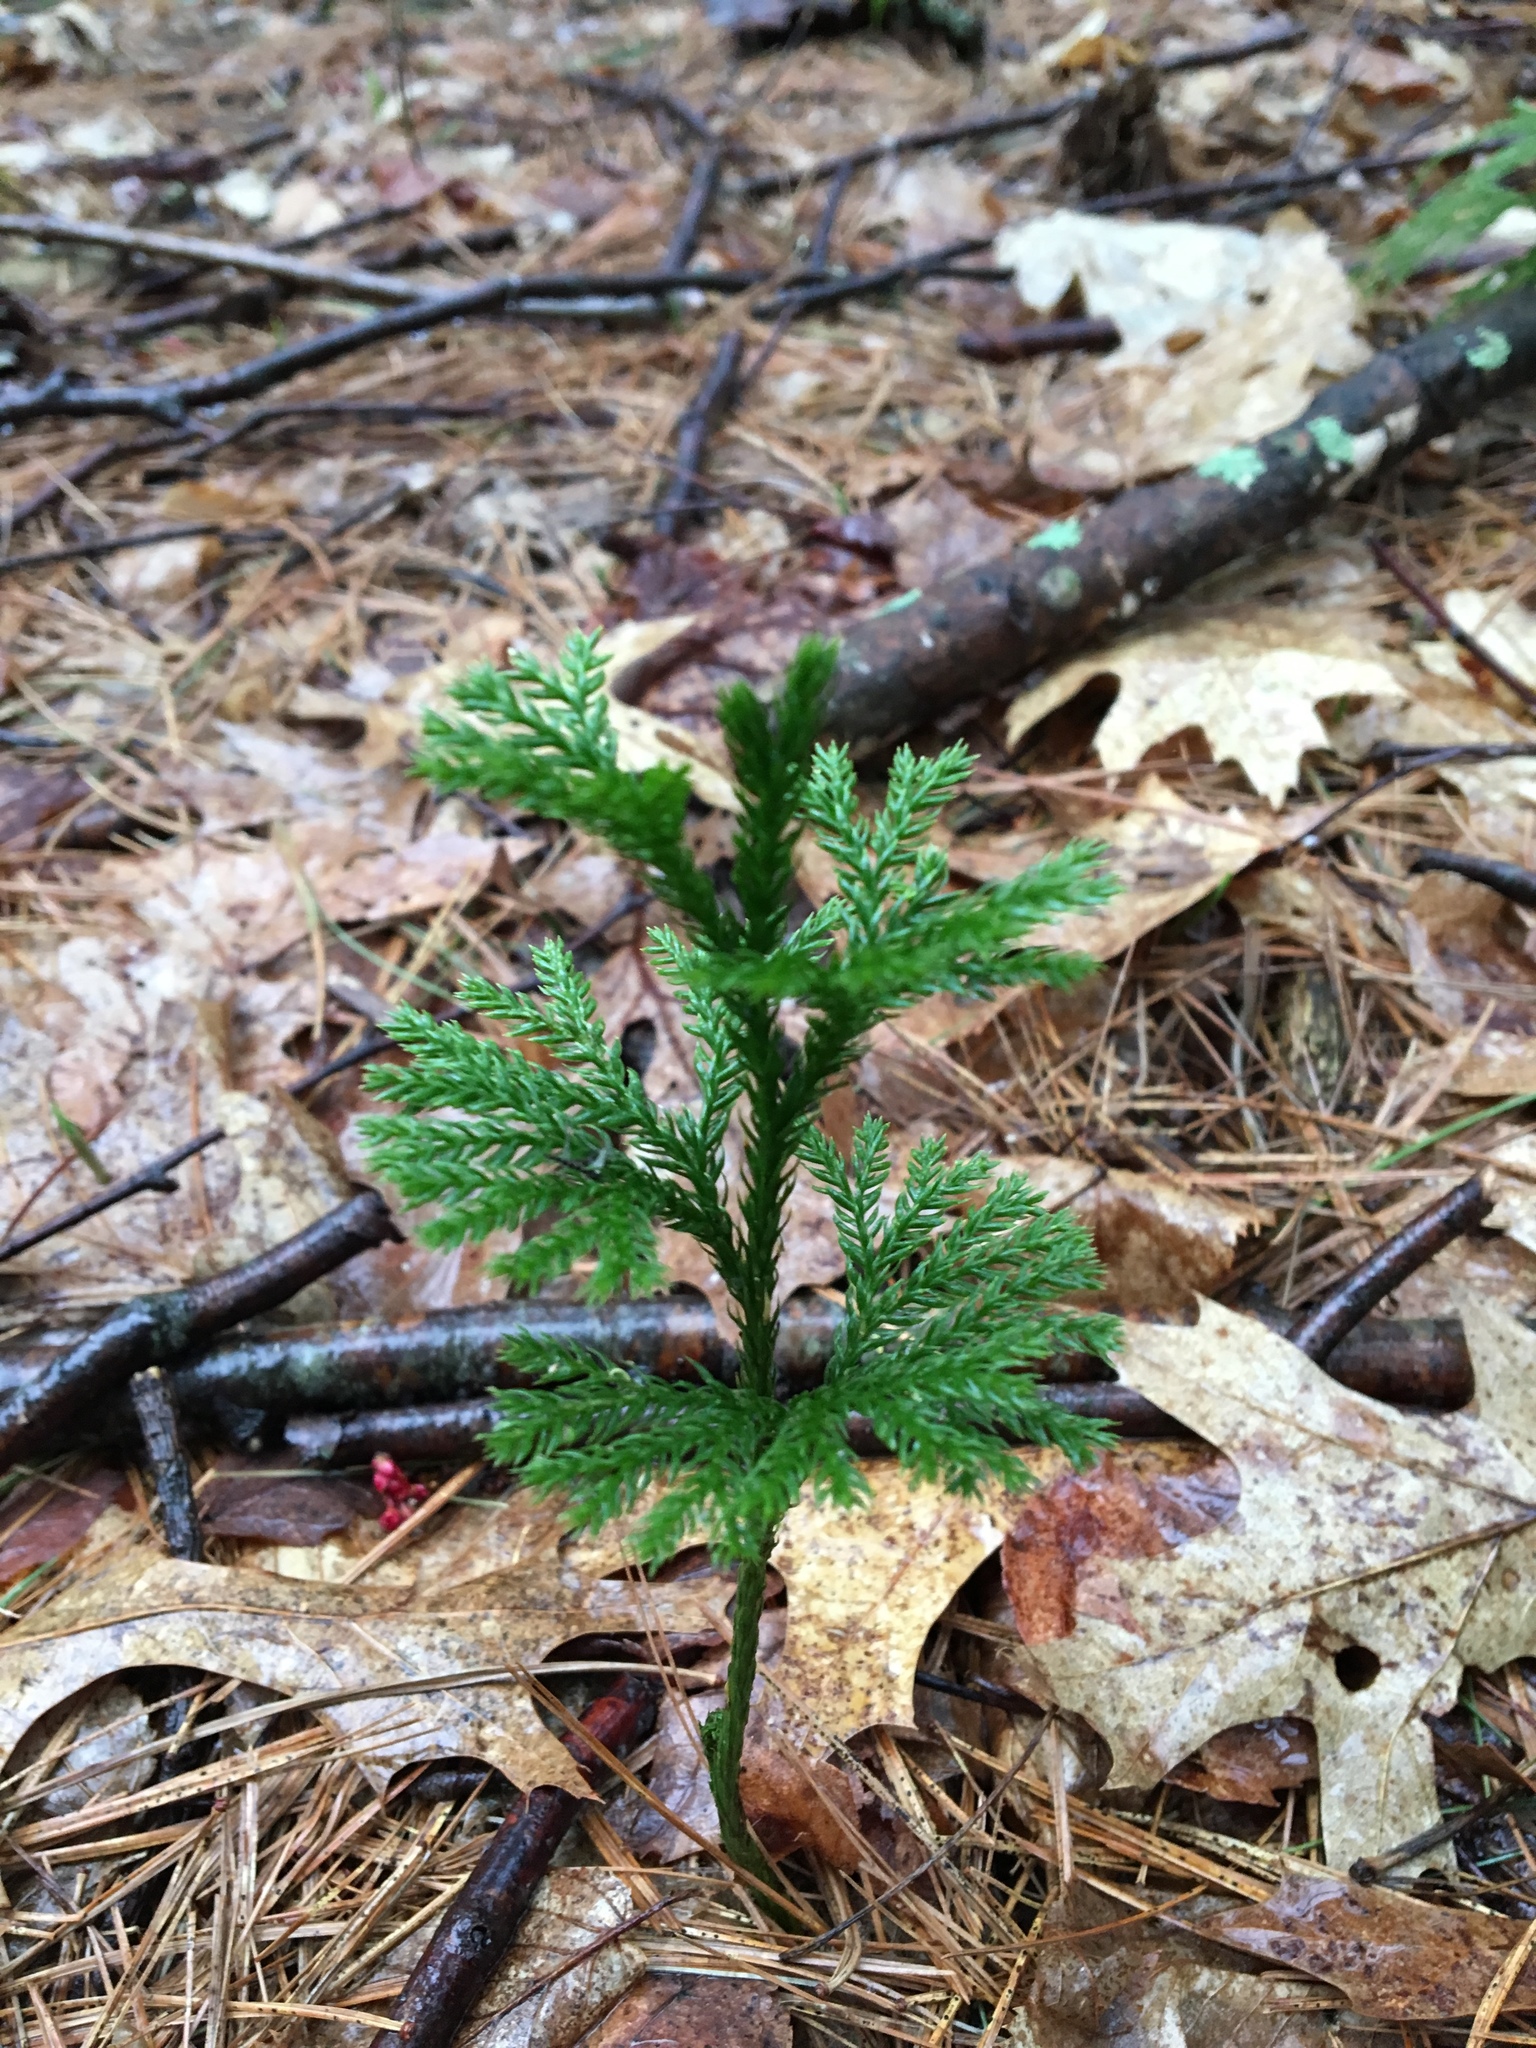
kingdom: Plantae
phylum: Tracheophyta
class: Lycopodiopsida
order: Lycopodiales
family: Lycopodiaceae
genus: Dendrolycopodium
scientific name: Dendrolycopodium obscurum
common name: Common ground-pine
